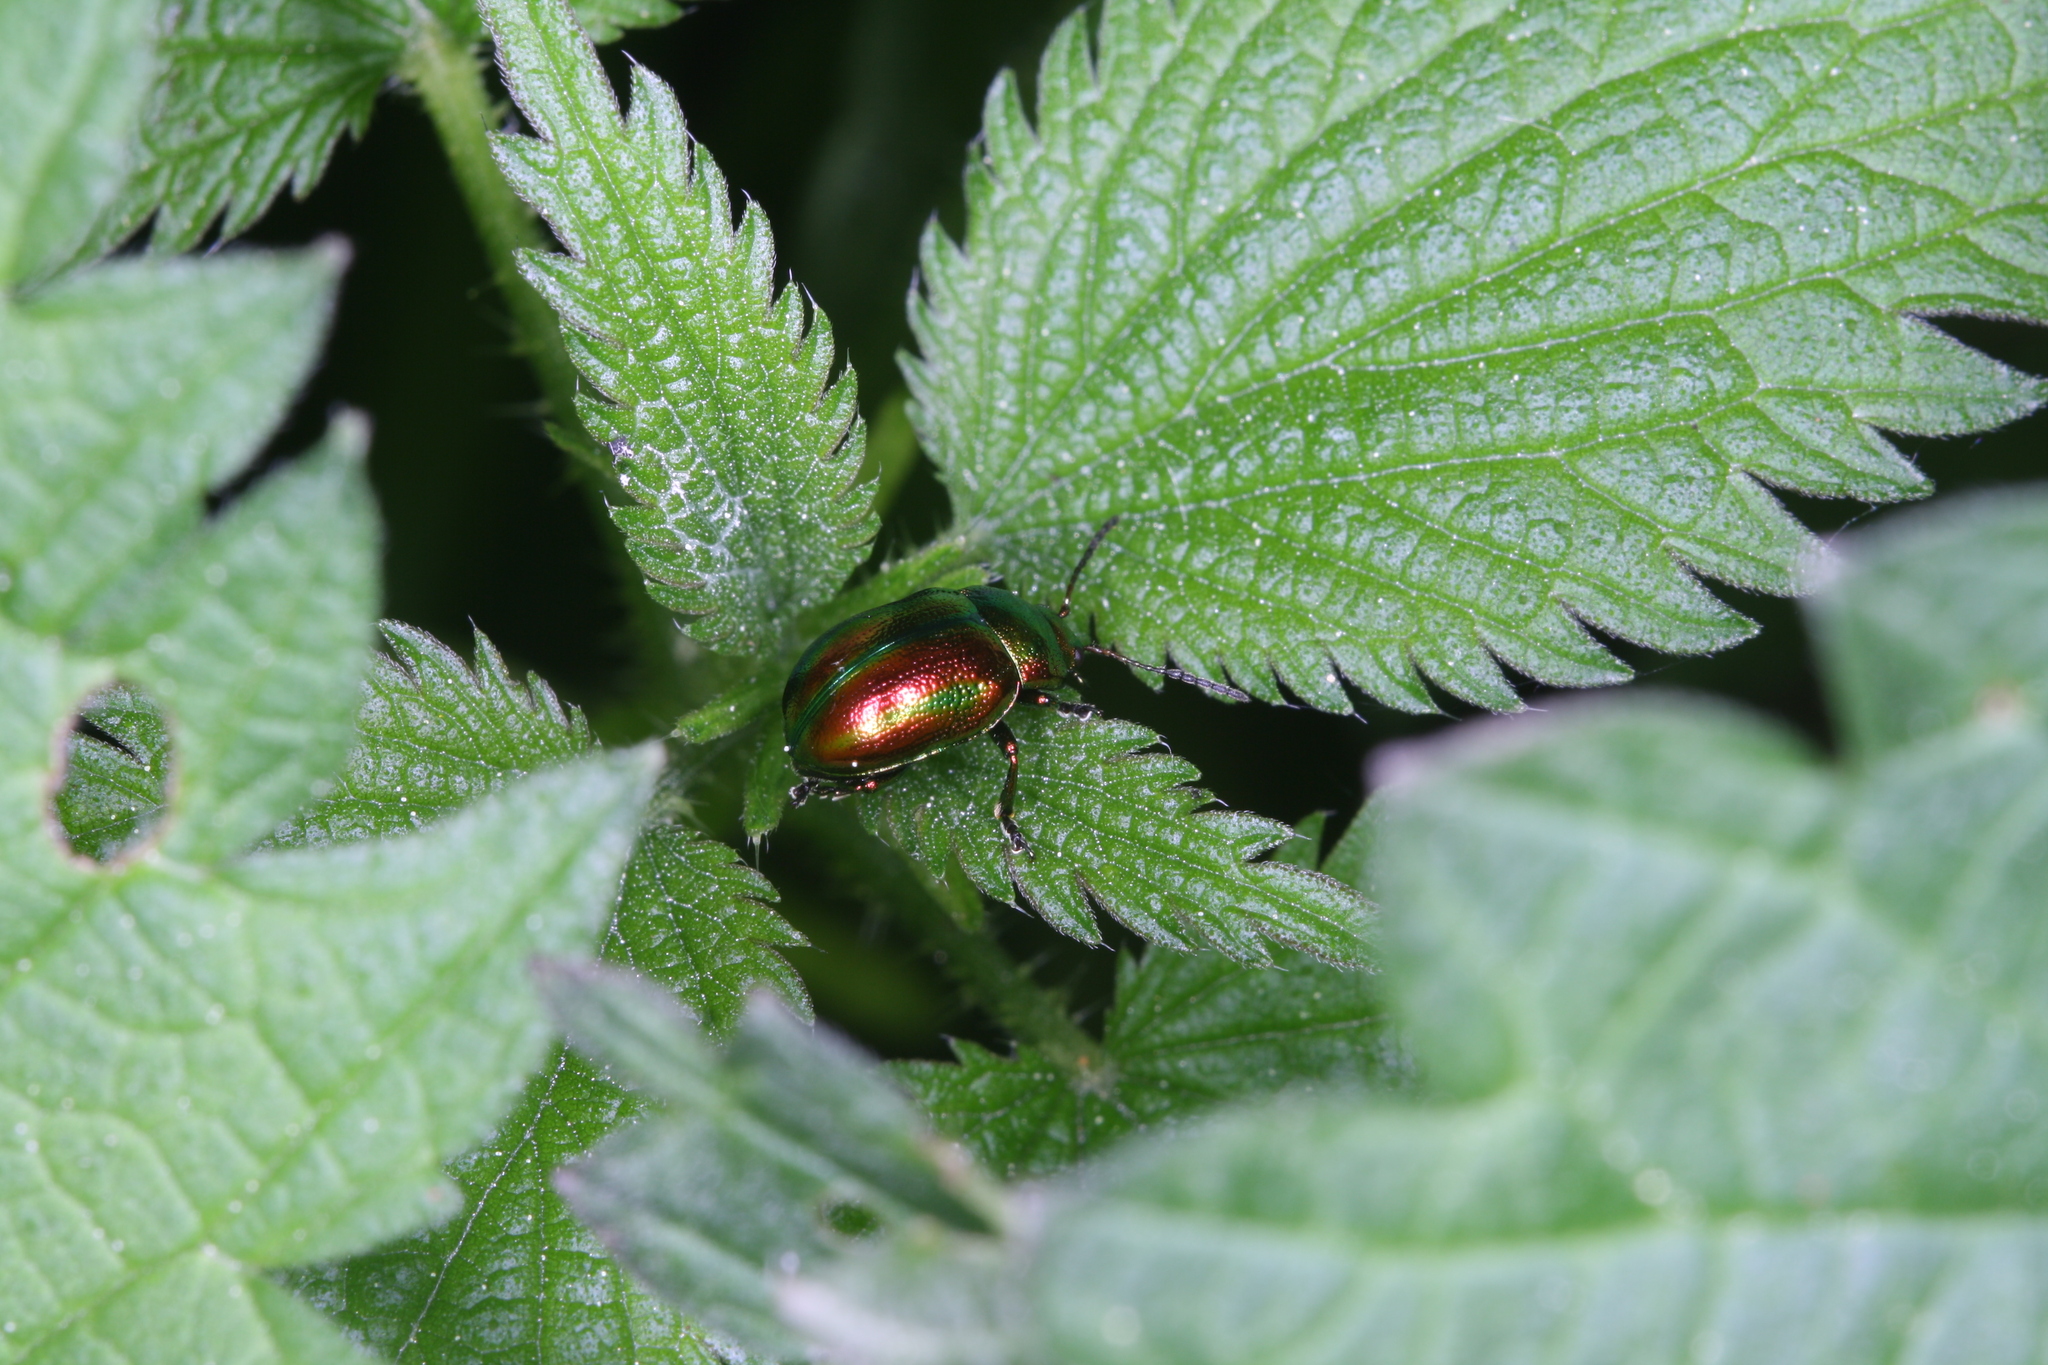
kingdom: Animalia
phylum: Arthropoda
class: Insecta
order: Coleoptera
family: Chrysomelidae
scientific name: Chrysomelidae
